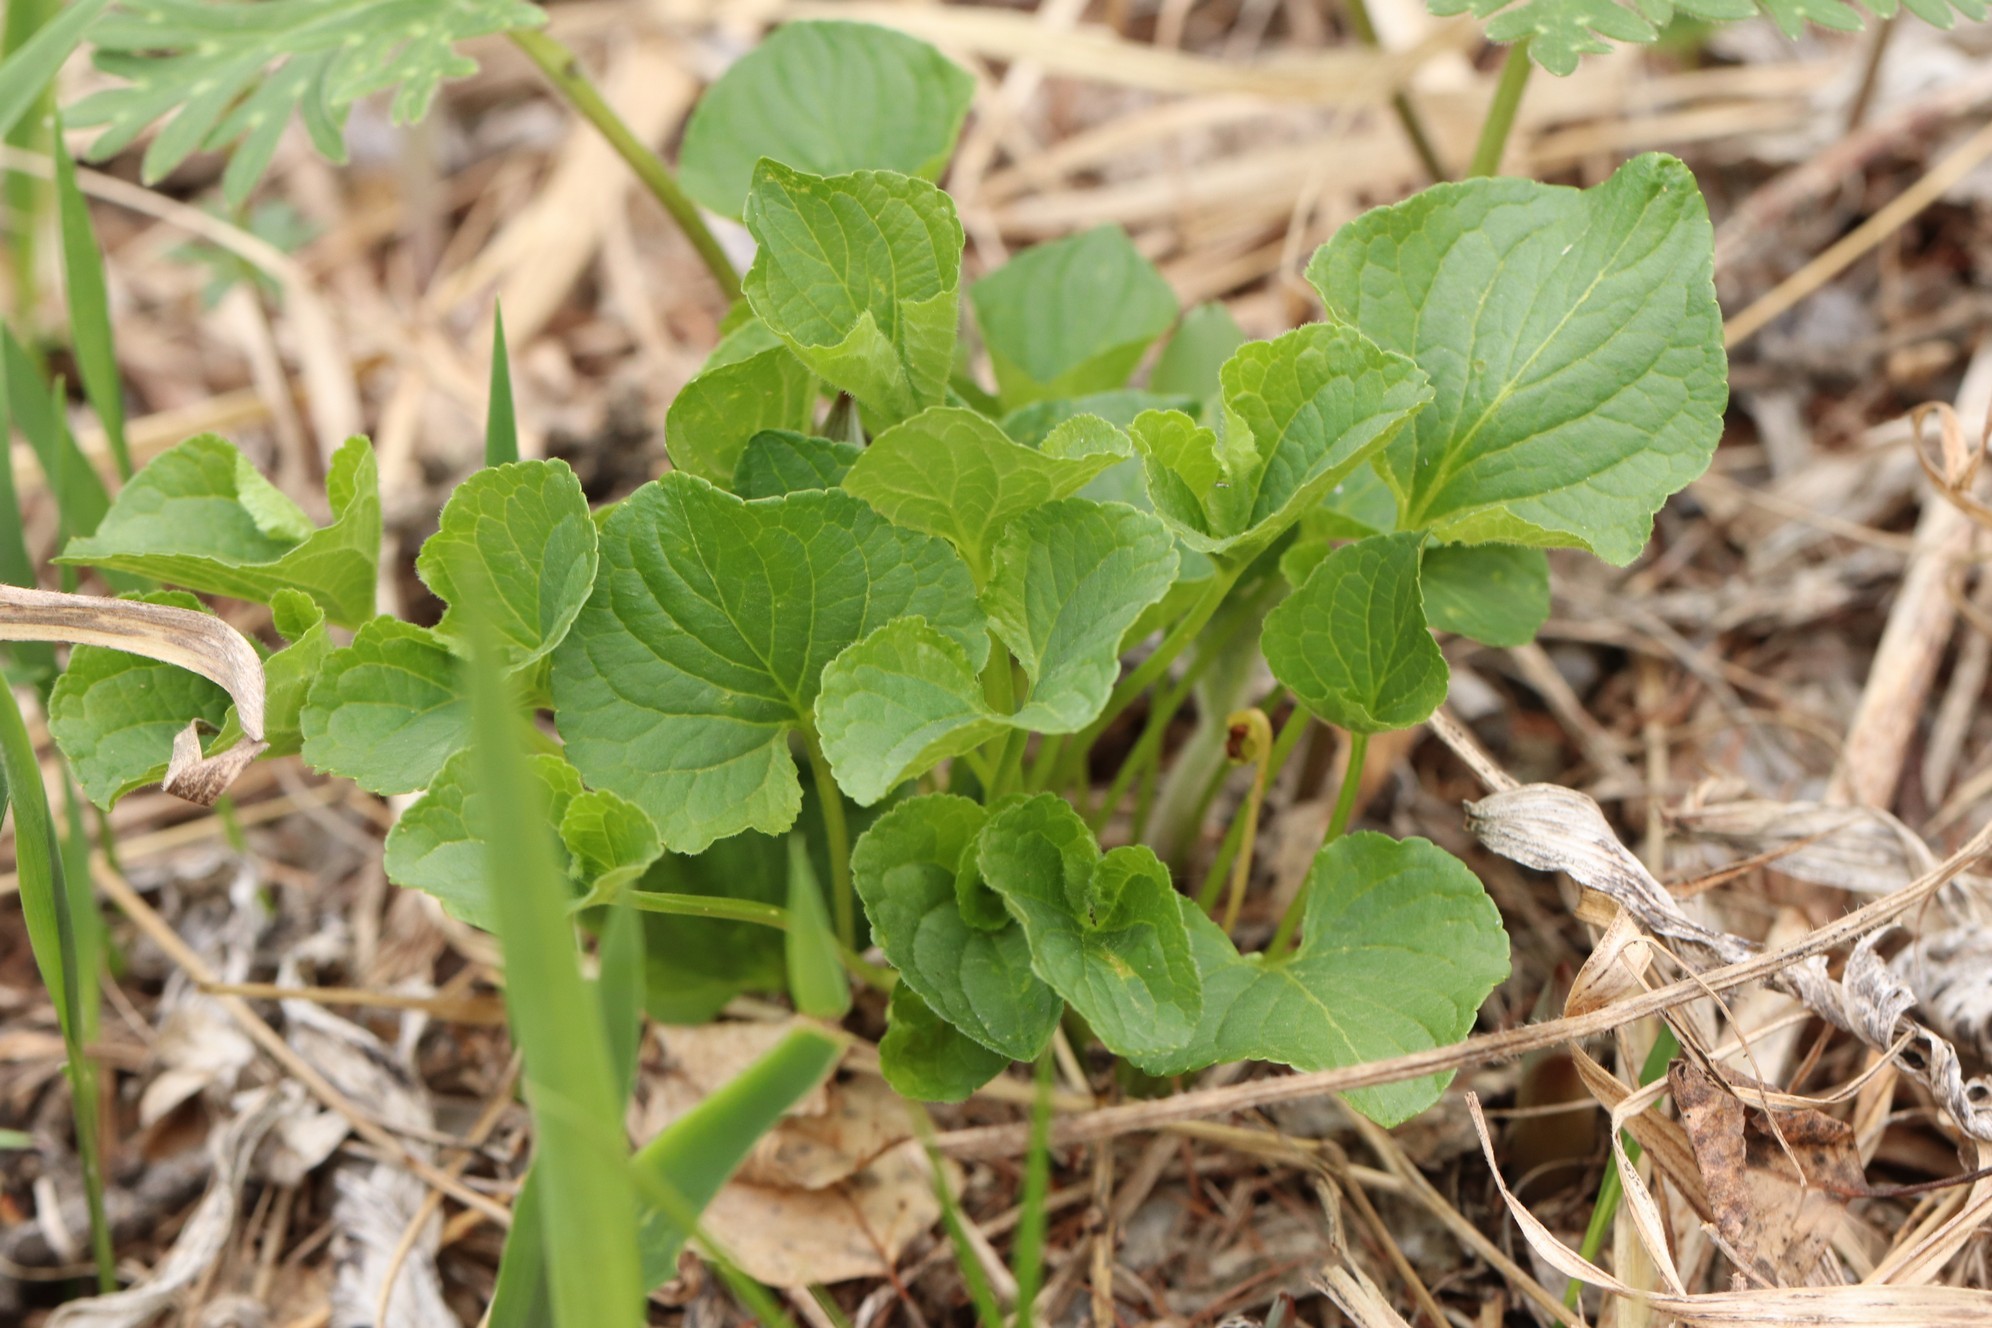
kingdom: Plantae
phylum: Tracheophyta
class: Magnoliopsida
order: Malpighiales
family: Violaceae
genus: Viola
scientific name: Viola mirabilis
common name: Wonder violet
